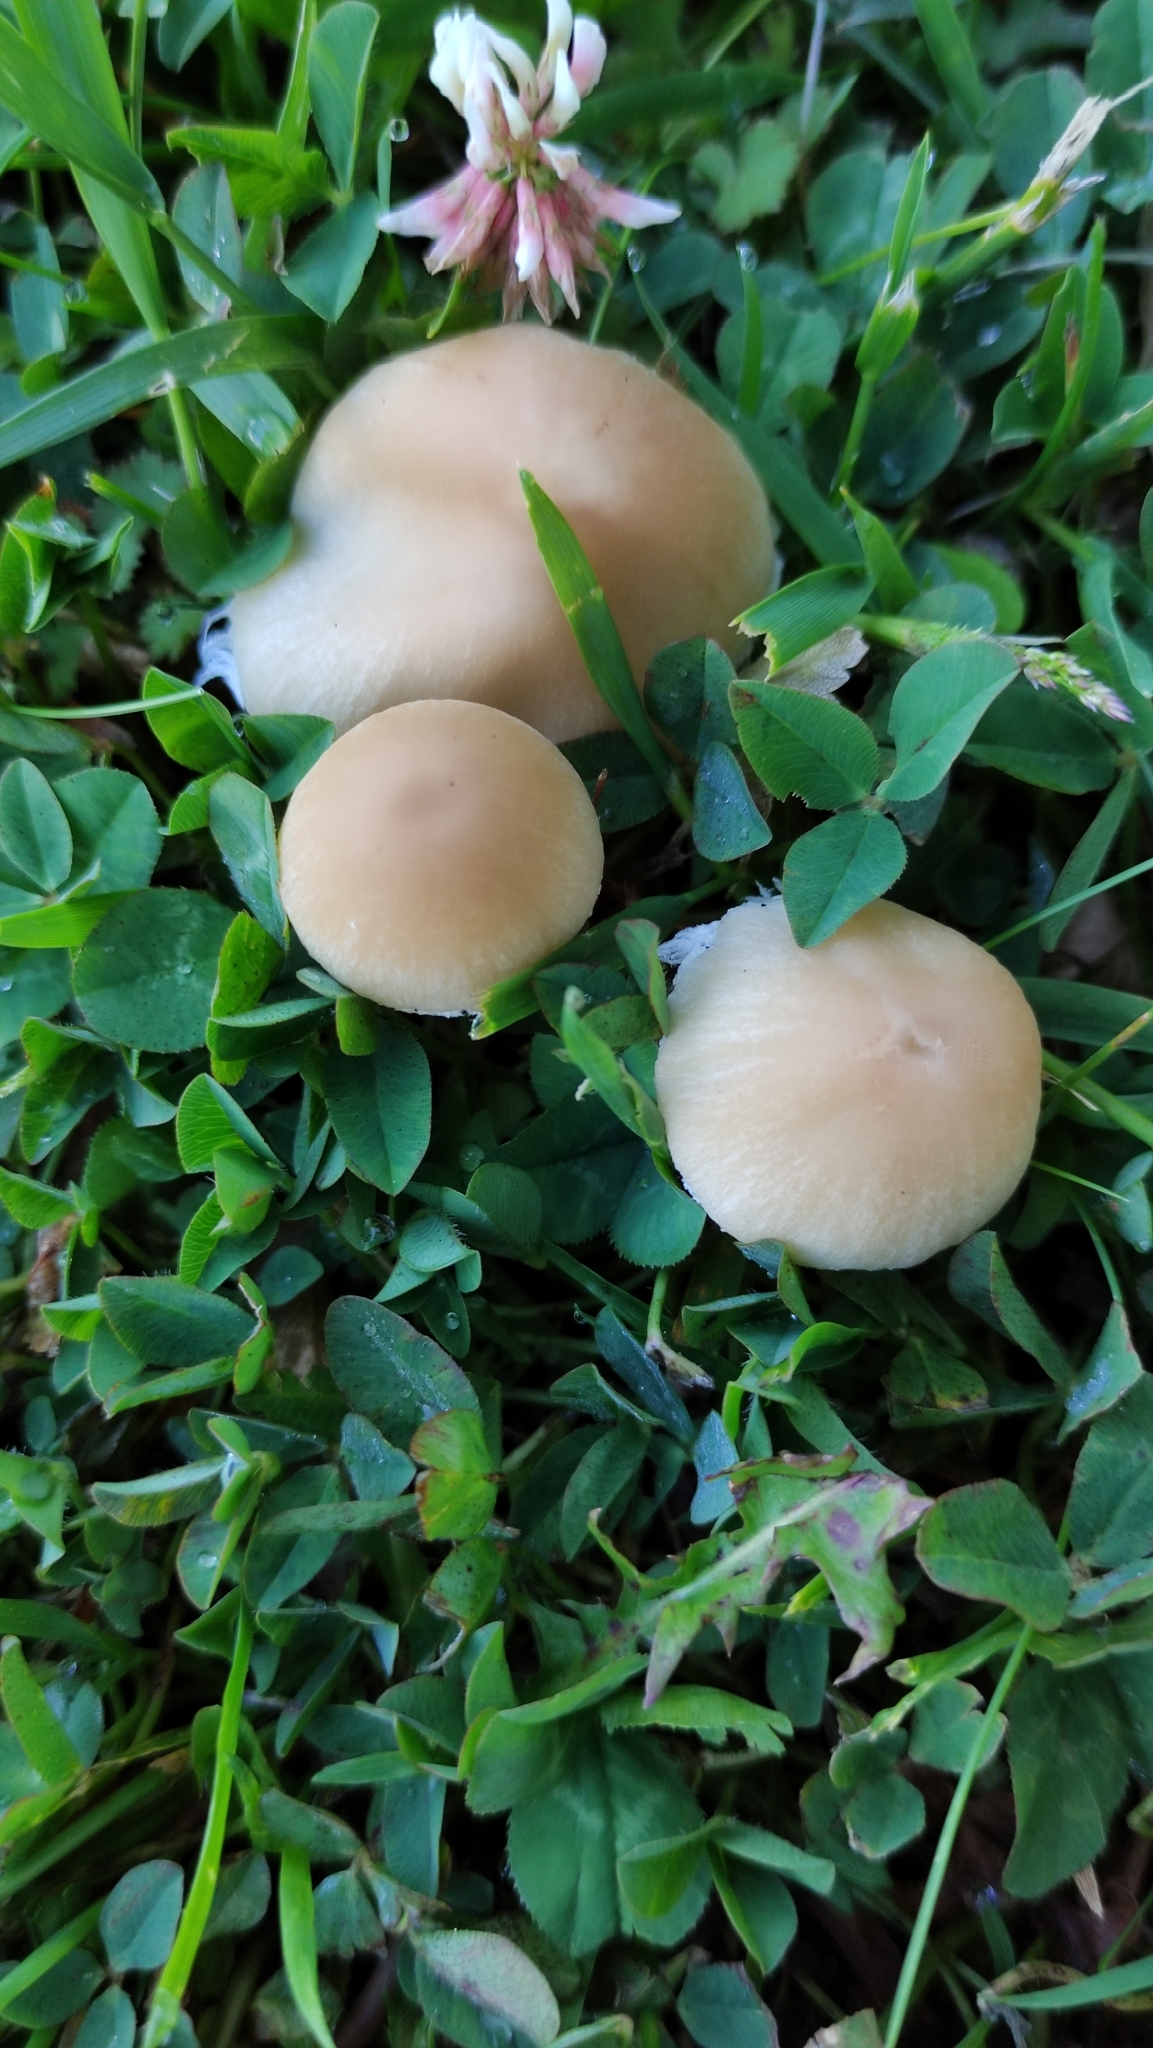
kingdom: Fungi
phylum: Basidiomycota
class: Agaricomycetes
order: Agaricales
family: Psathyrellaceae
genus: Candolleomyces
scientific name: Candolleomyces candolleanus
